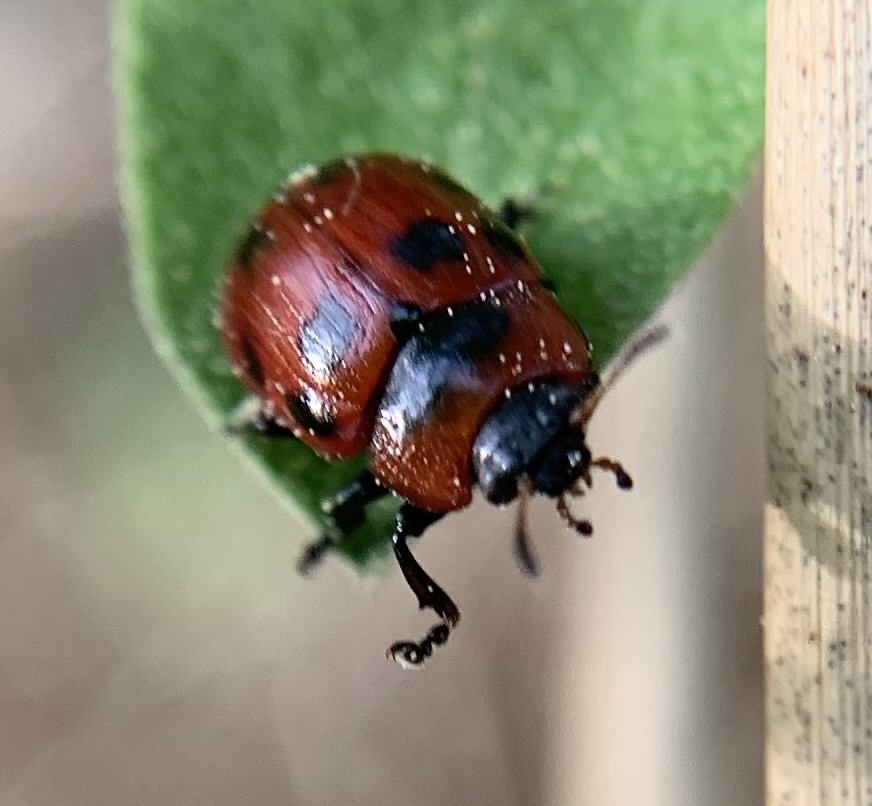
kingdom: Animalia
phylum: Arthropoda
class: Insecta
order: Coleoptera
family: Chrysomelidae
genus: Gonioctena
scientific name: Gonioctena viminalis
